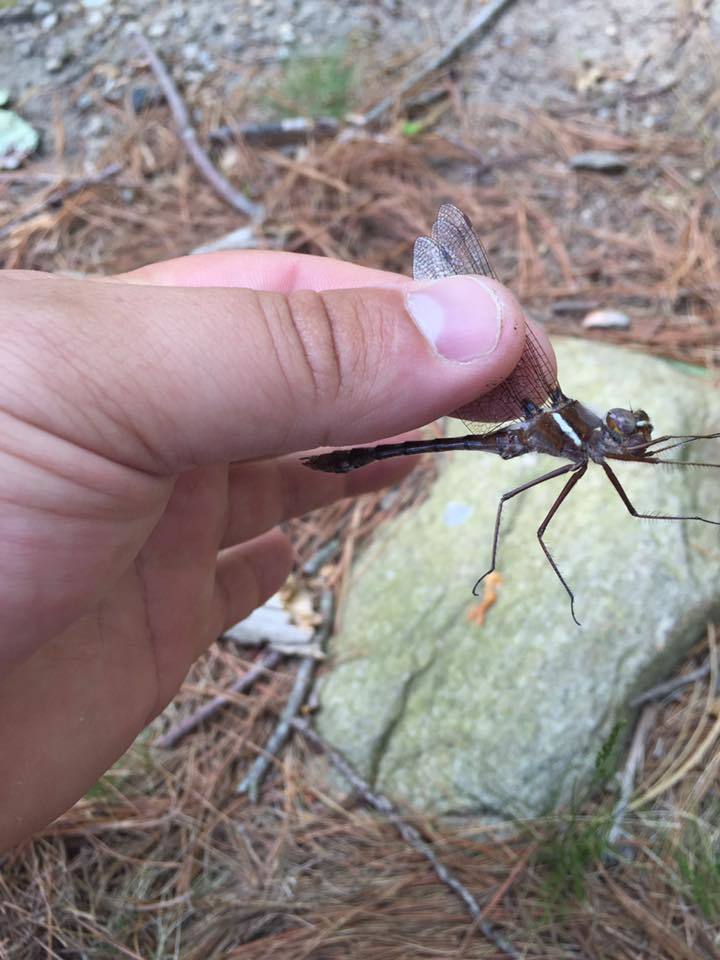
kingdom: Animalia
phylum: Arthropoda
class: Insecta
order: Odonata
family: Macromiidae
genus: Didymops
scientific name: Didymops transversa
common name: Stream cruiser
